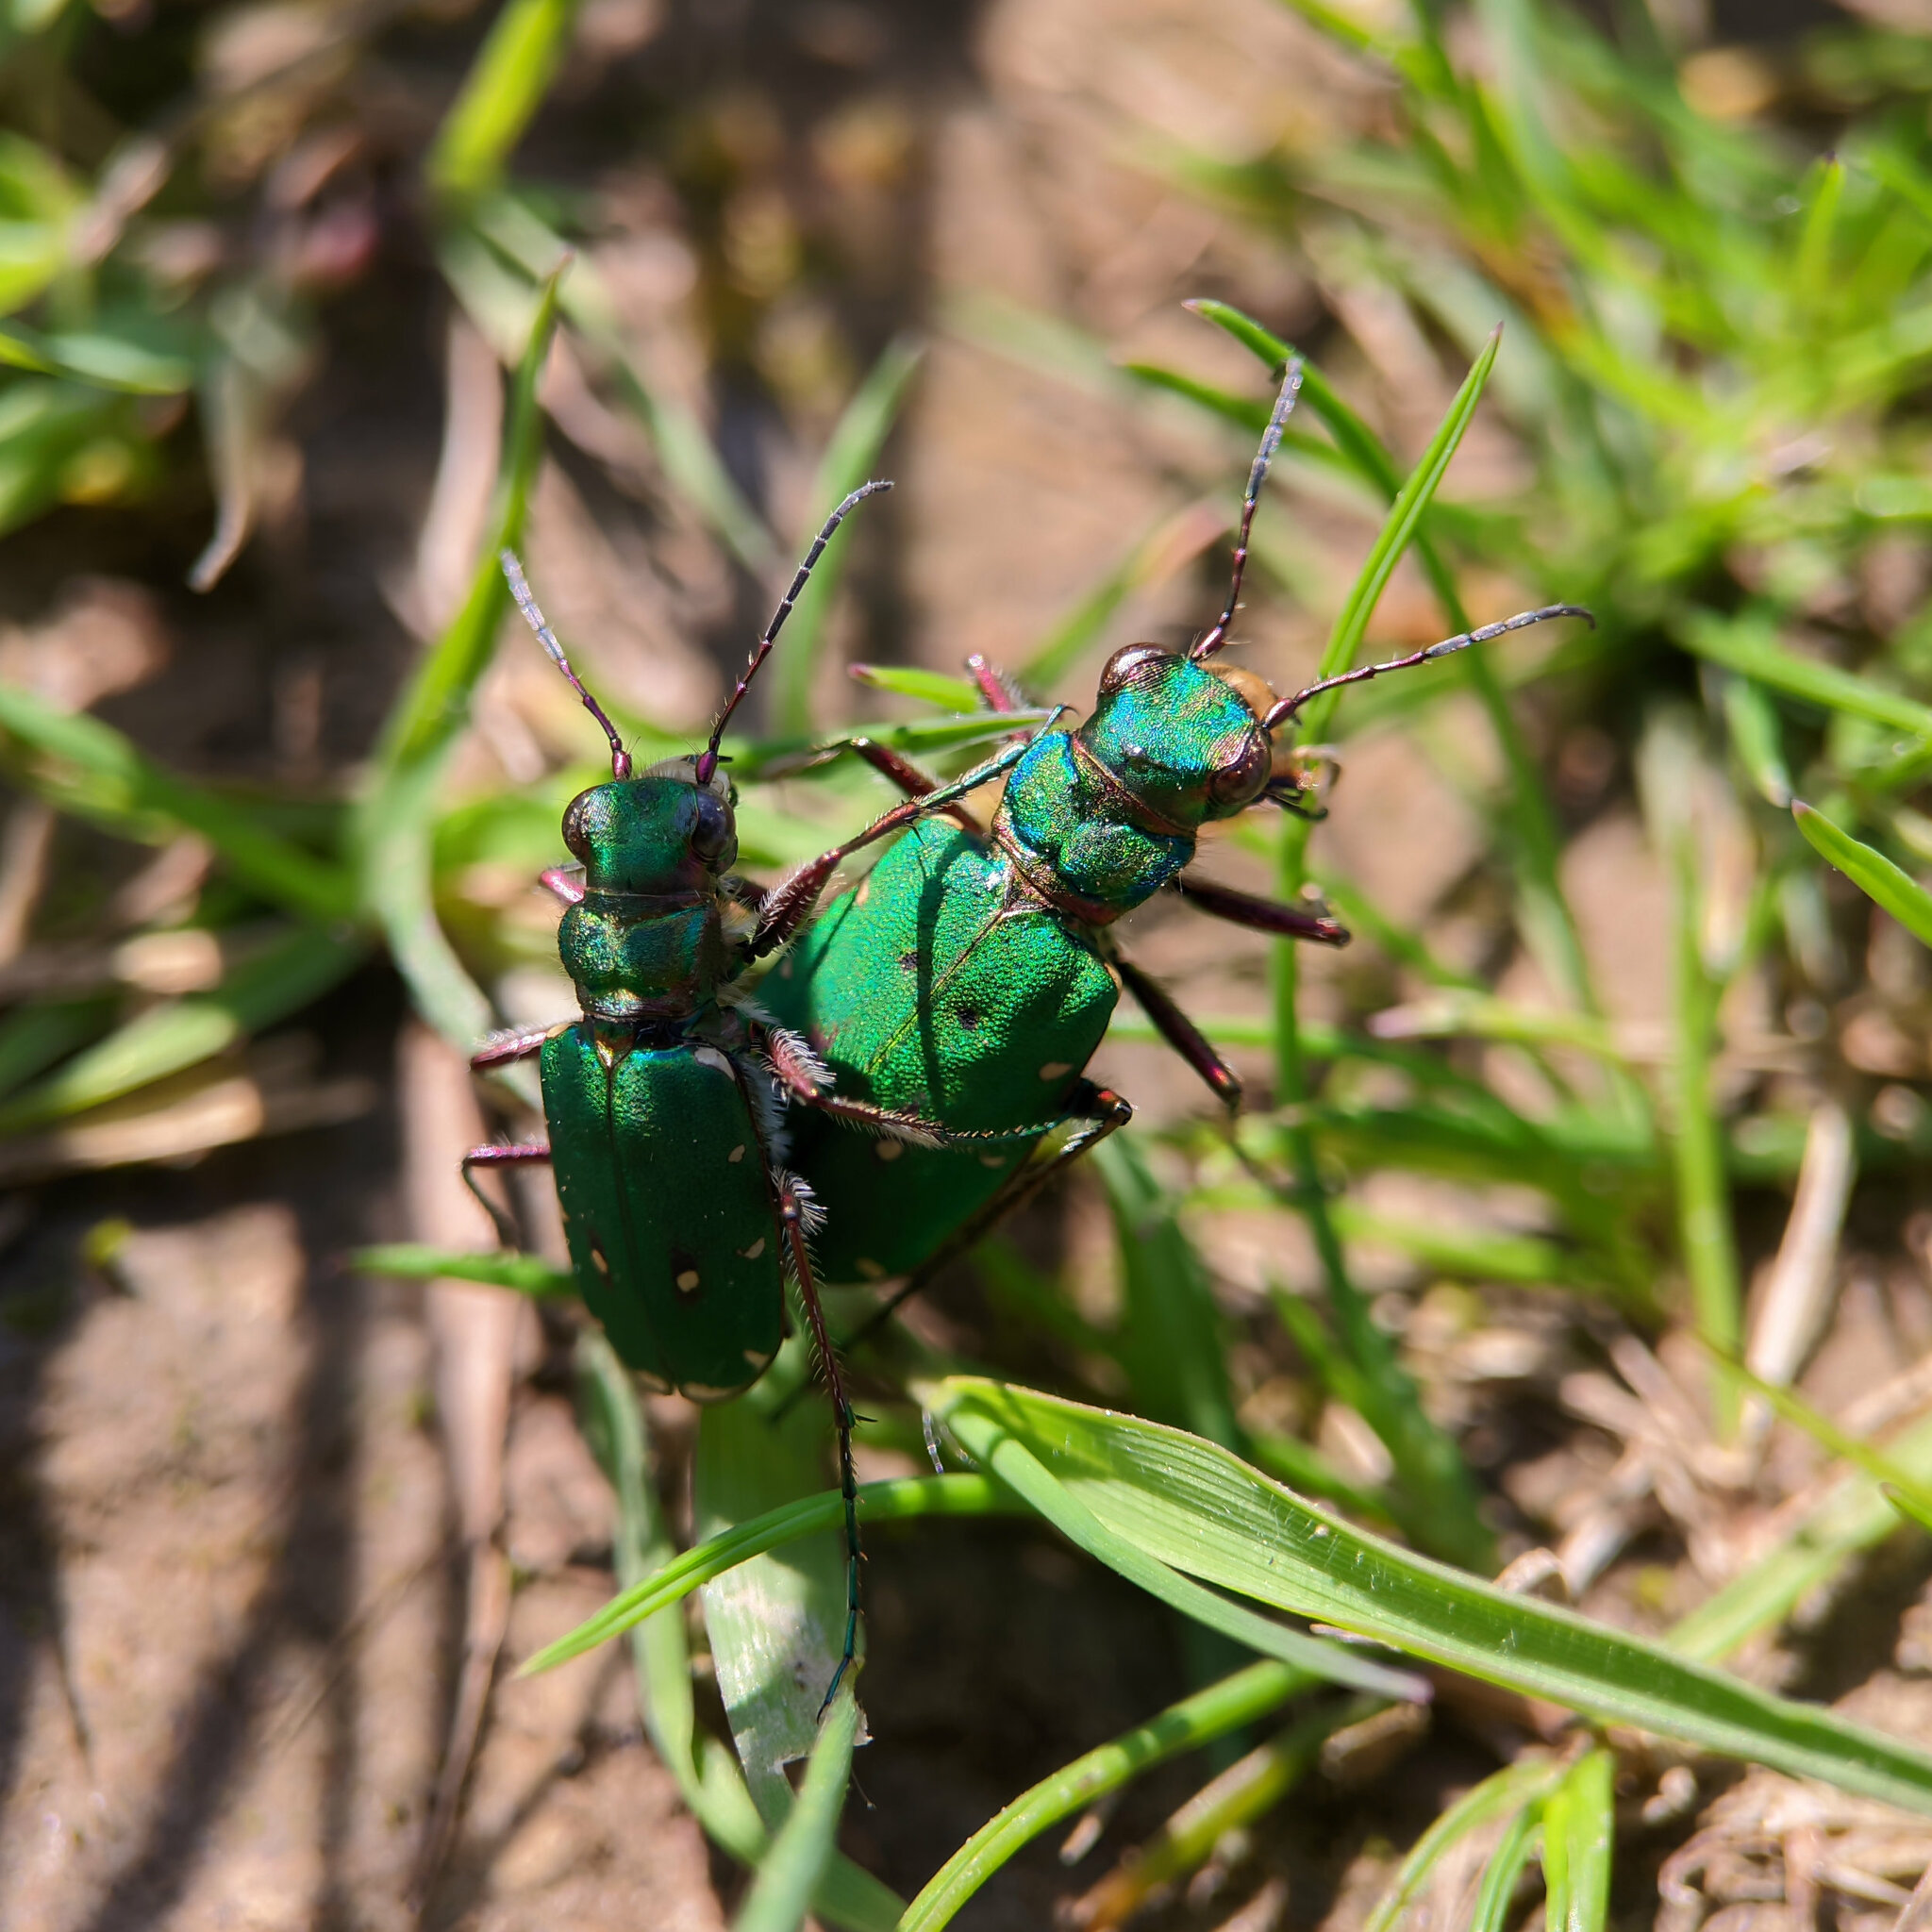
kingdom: Animalia
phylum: Arthropoda
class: Insecta
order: Coleoptera
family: Carabidae
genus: Cicindela
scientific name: Cicindela campestris
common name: Common tiger beetle
